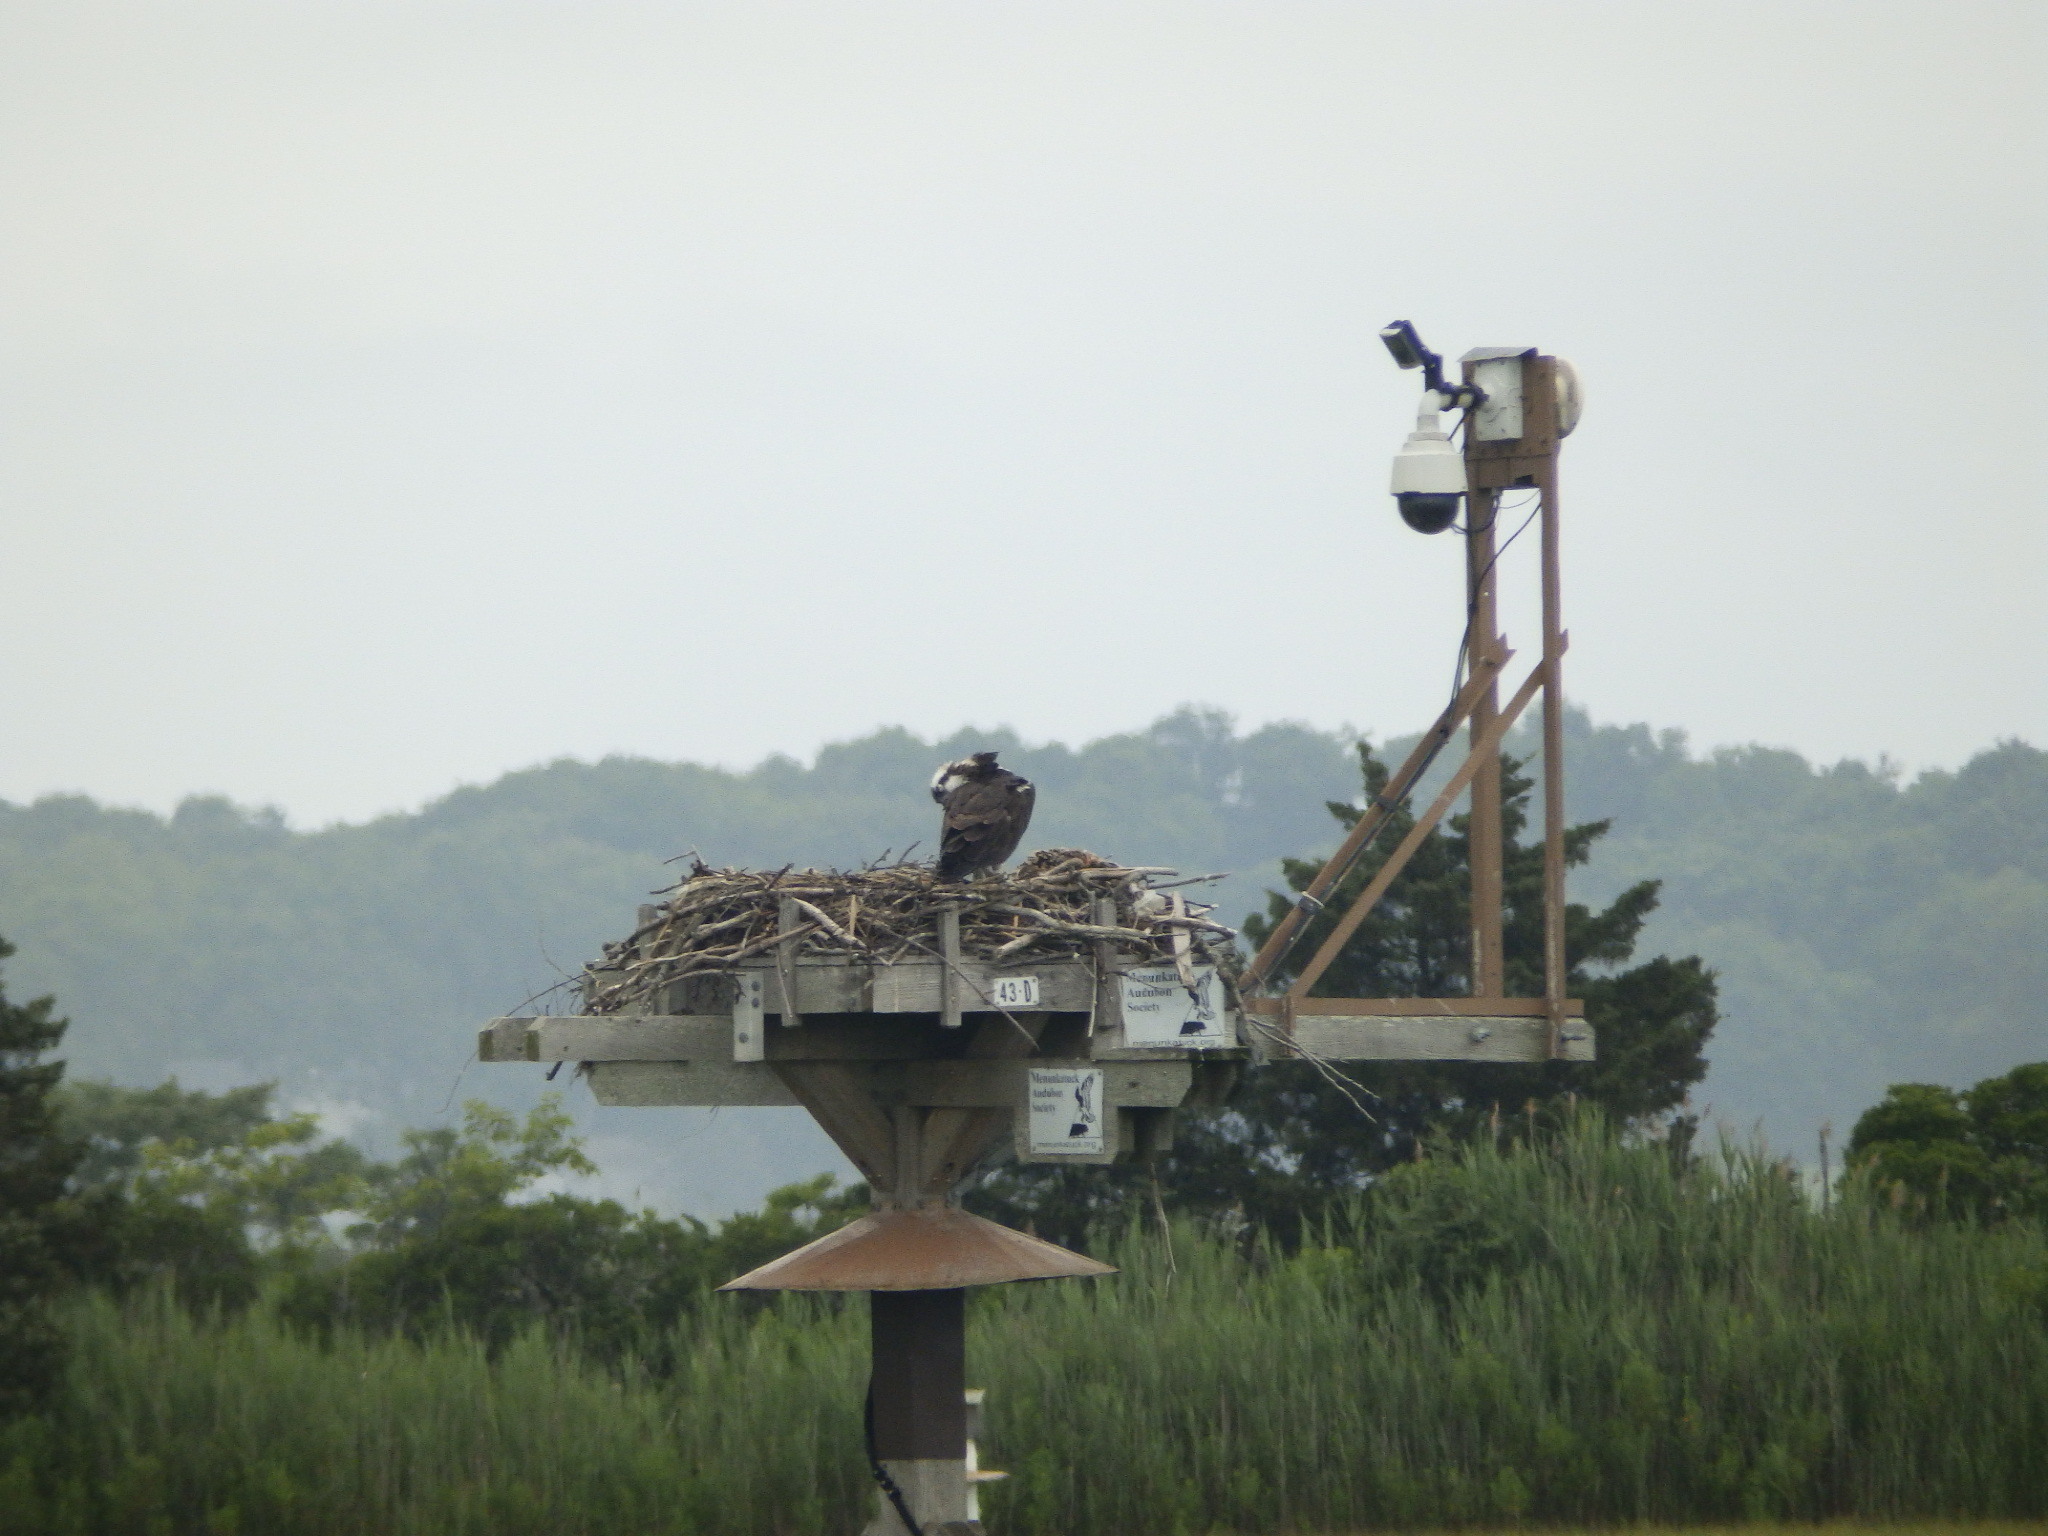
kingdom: Animalia
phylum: Chordata
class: Aves
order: Accipitriformes
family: Pandionidae
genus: Pandion
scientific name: Pandion haliaetus
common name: Osprey
